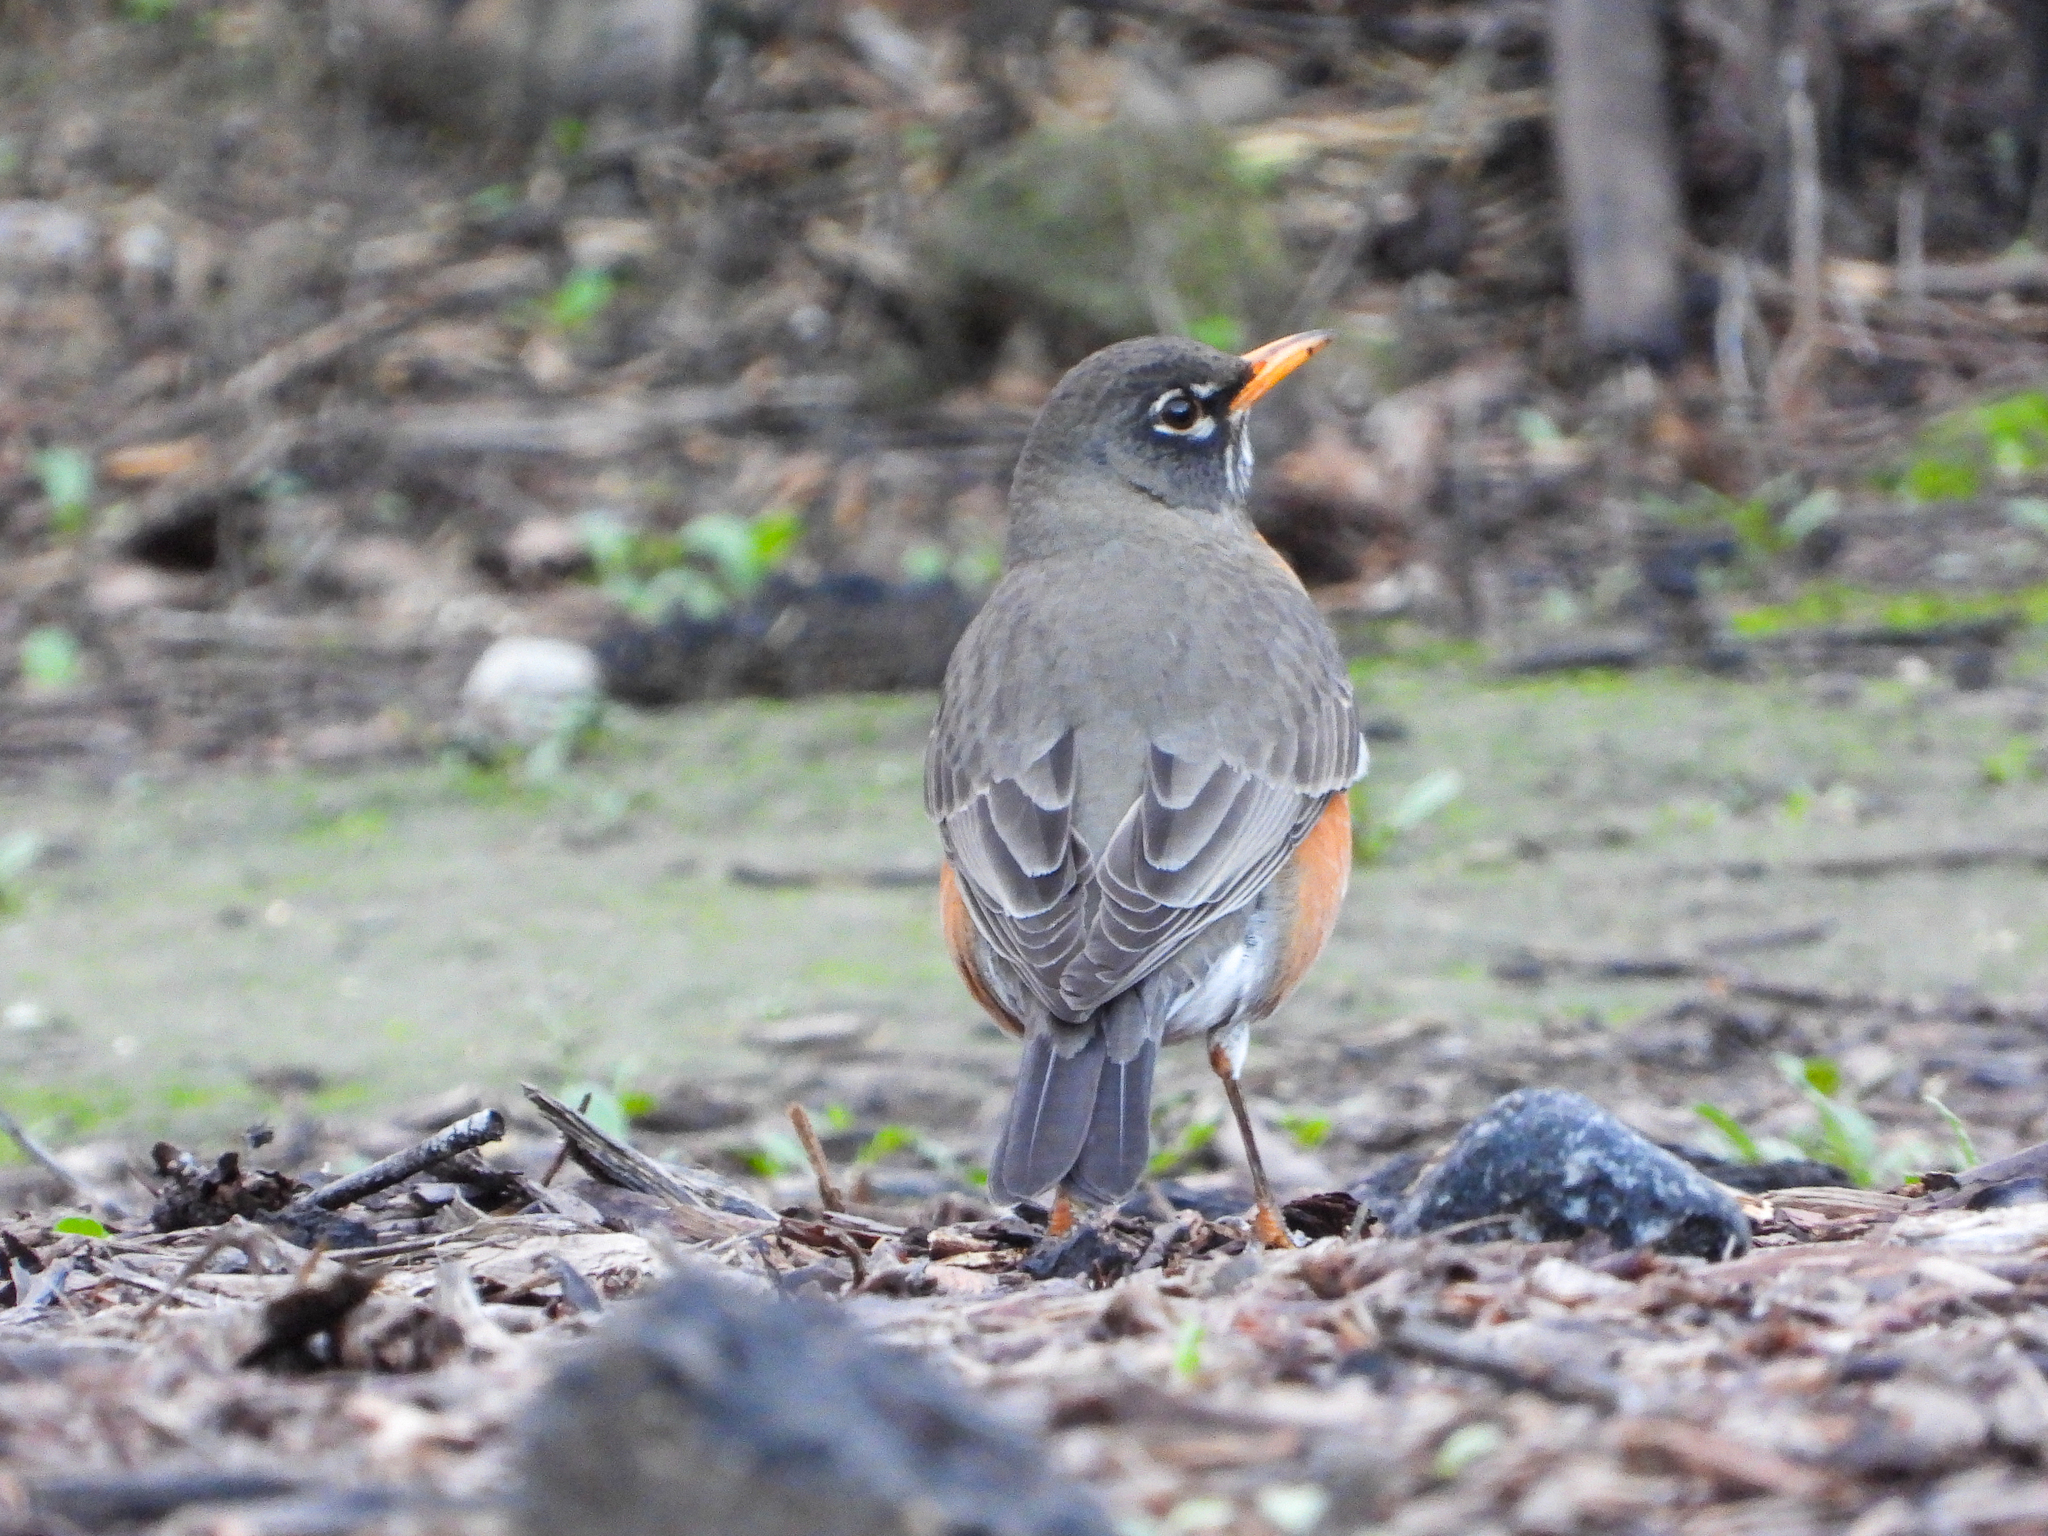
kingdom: Animalia
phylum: Chordata
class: Aves
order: Passeriformes
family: Turdidae
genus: Turdus
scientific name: Turdus migratorius
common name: American robin
